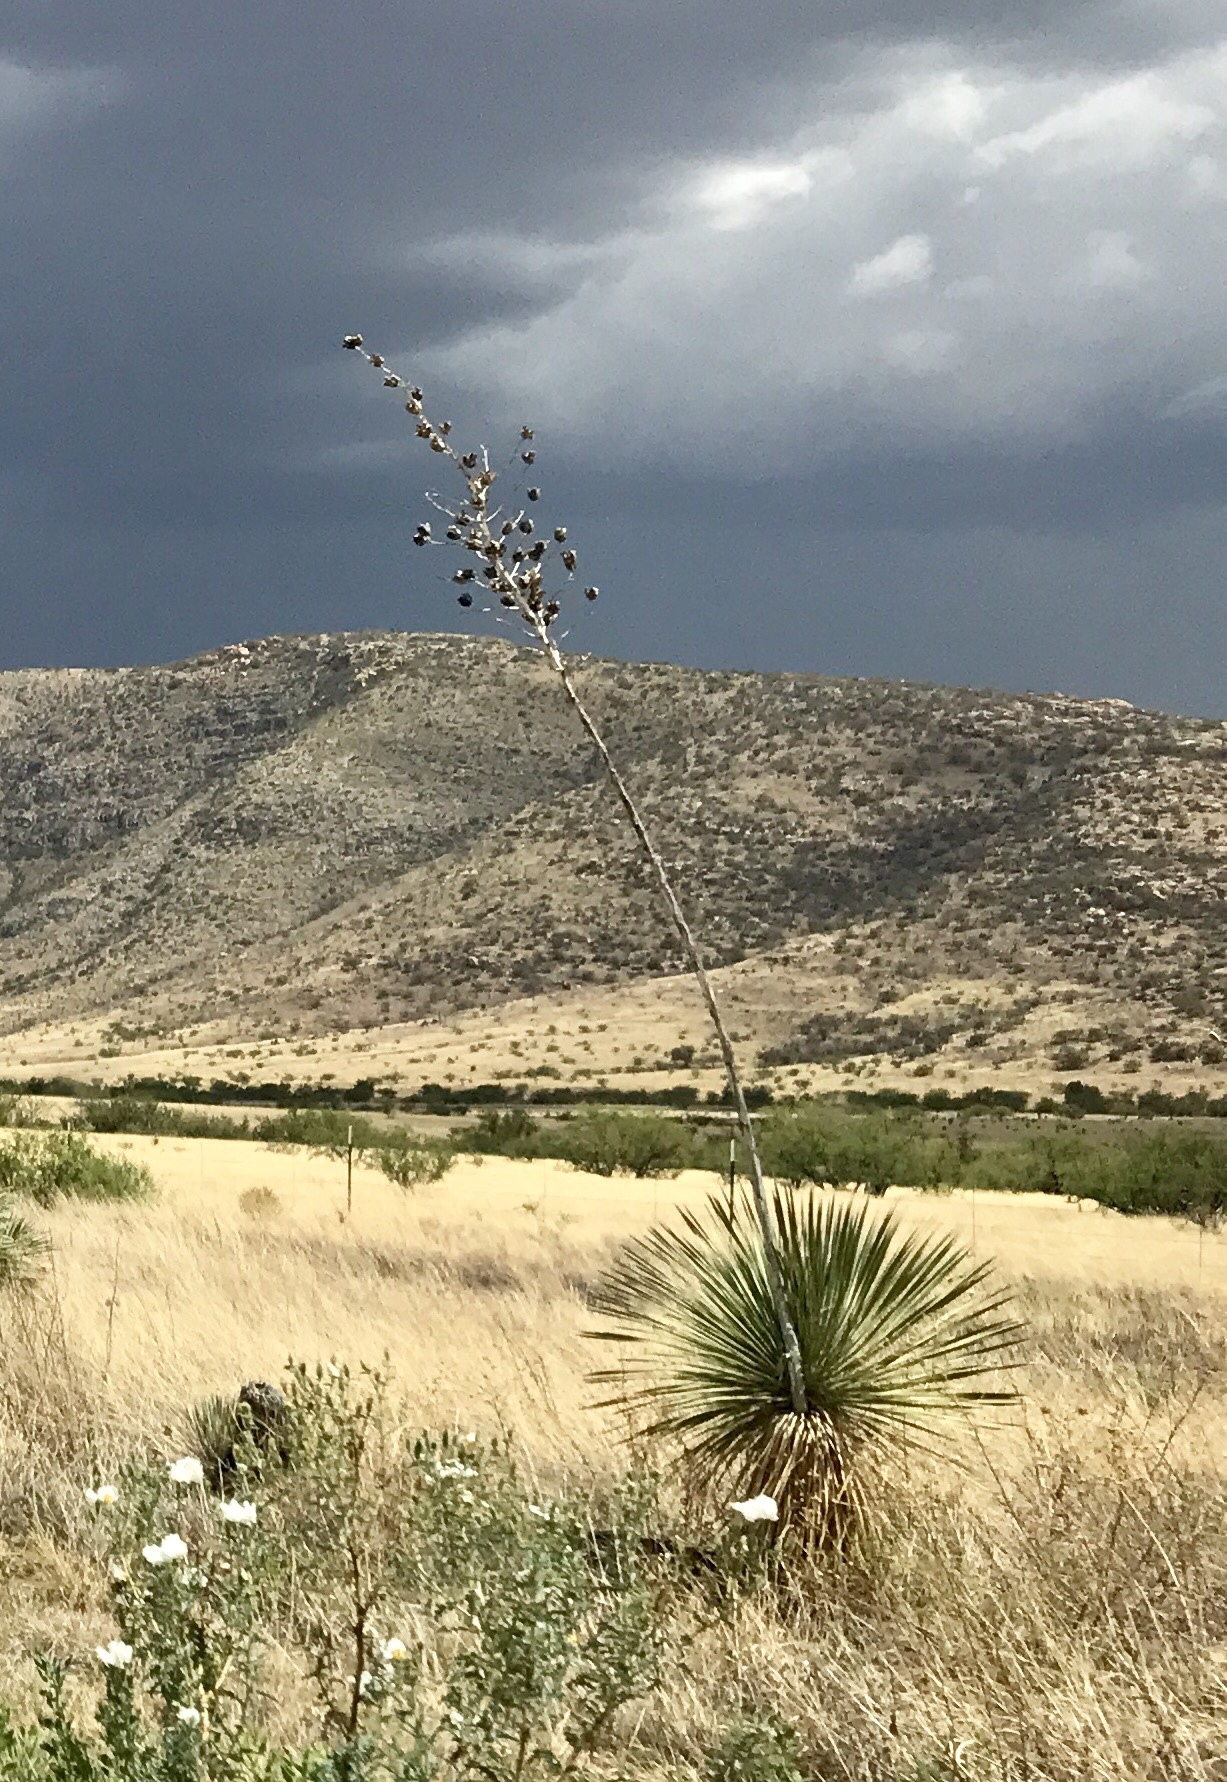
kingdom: Plantae
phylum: Tracheophyta
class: Liliopsida
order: Asparagales
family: Asparagaceae
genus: Yucca
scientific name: Yucca elata
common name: Palmella
